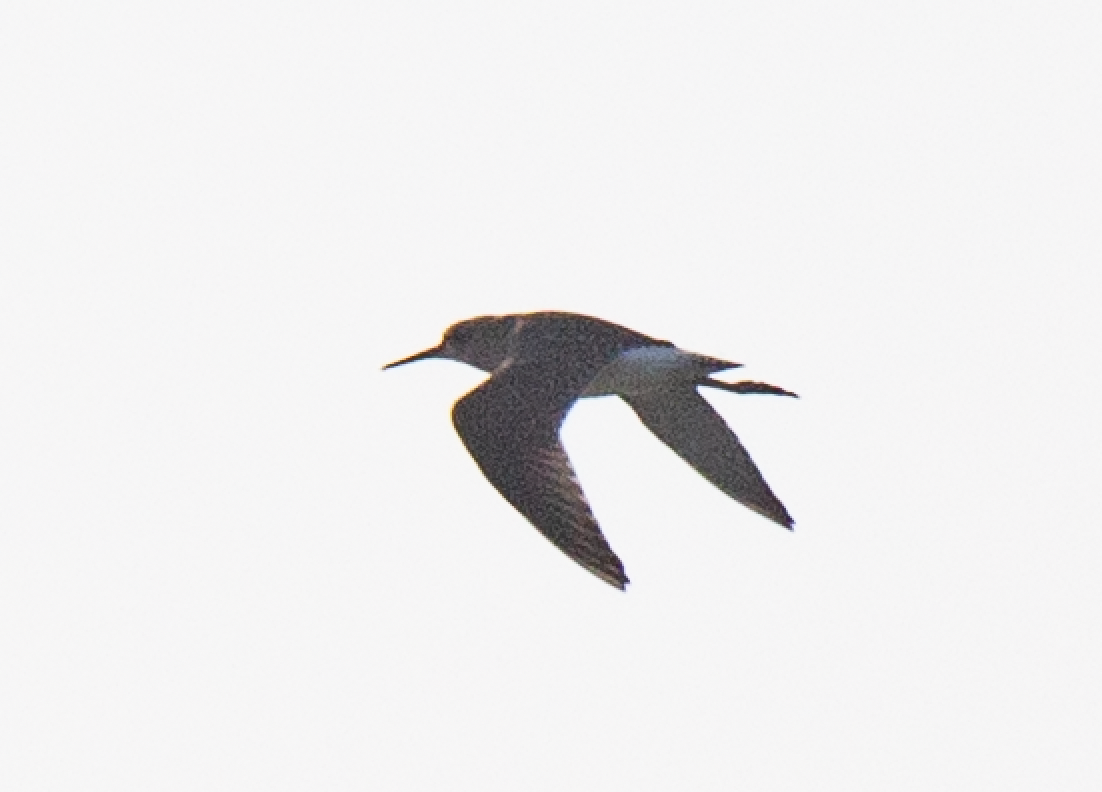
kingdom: Animalia
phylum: Chordata
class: Aves
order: Charadriiformes
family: Scolopacidae
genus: Tringa
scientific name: Tringa glareola
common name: Wood sandpiper
